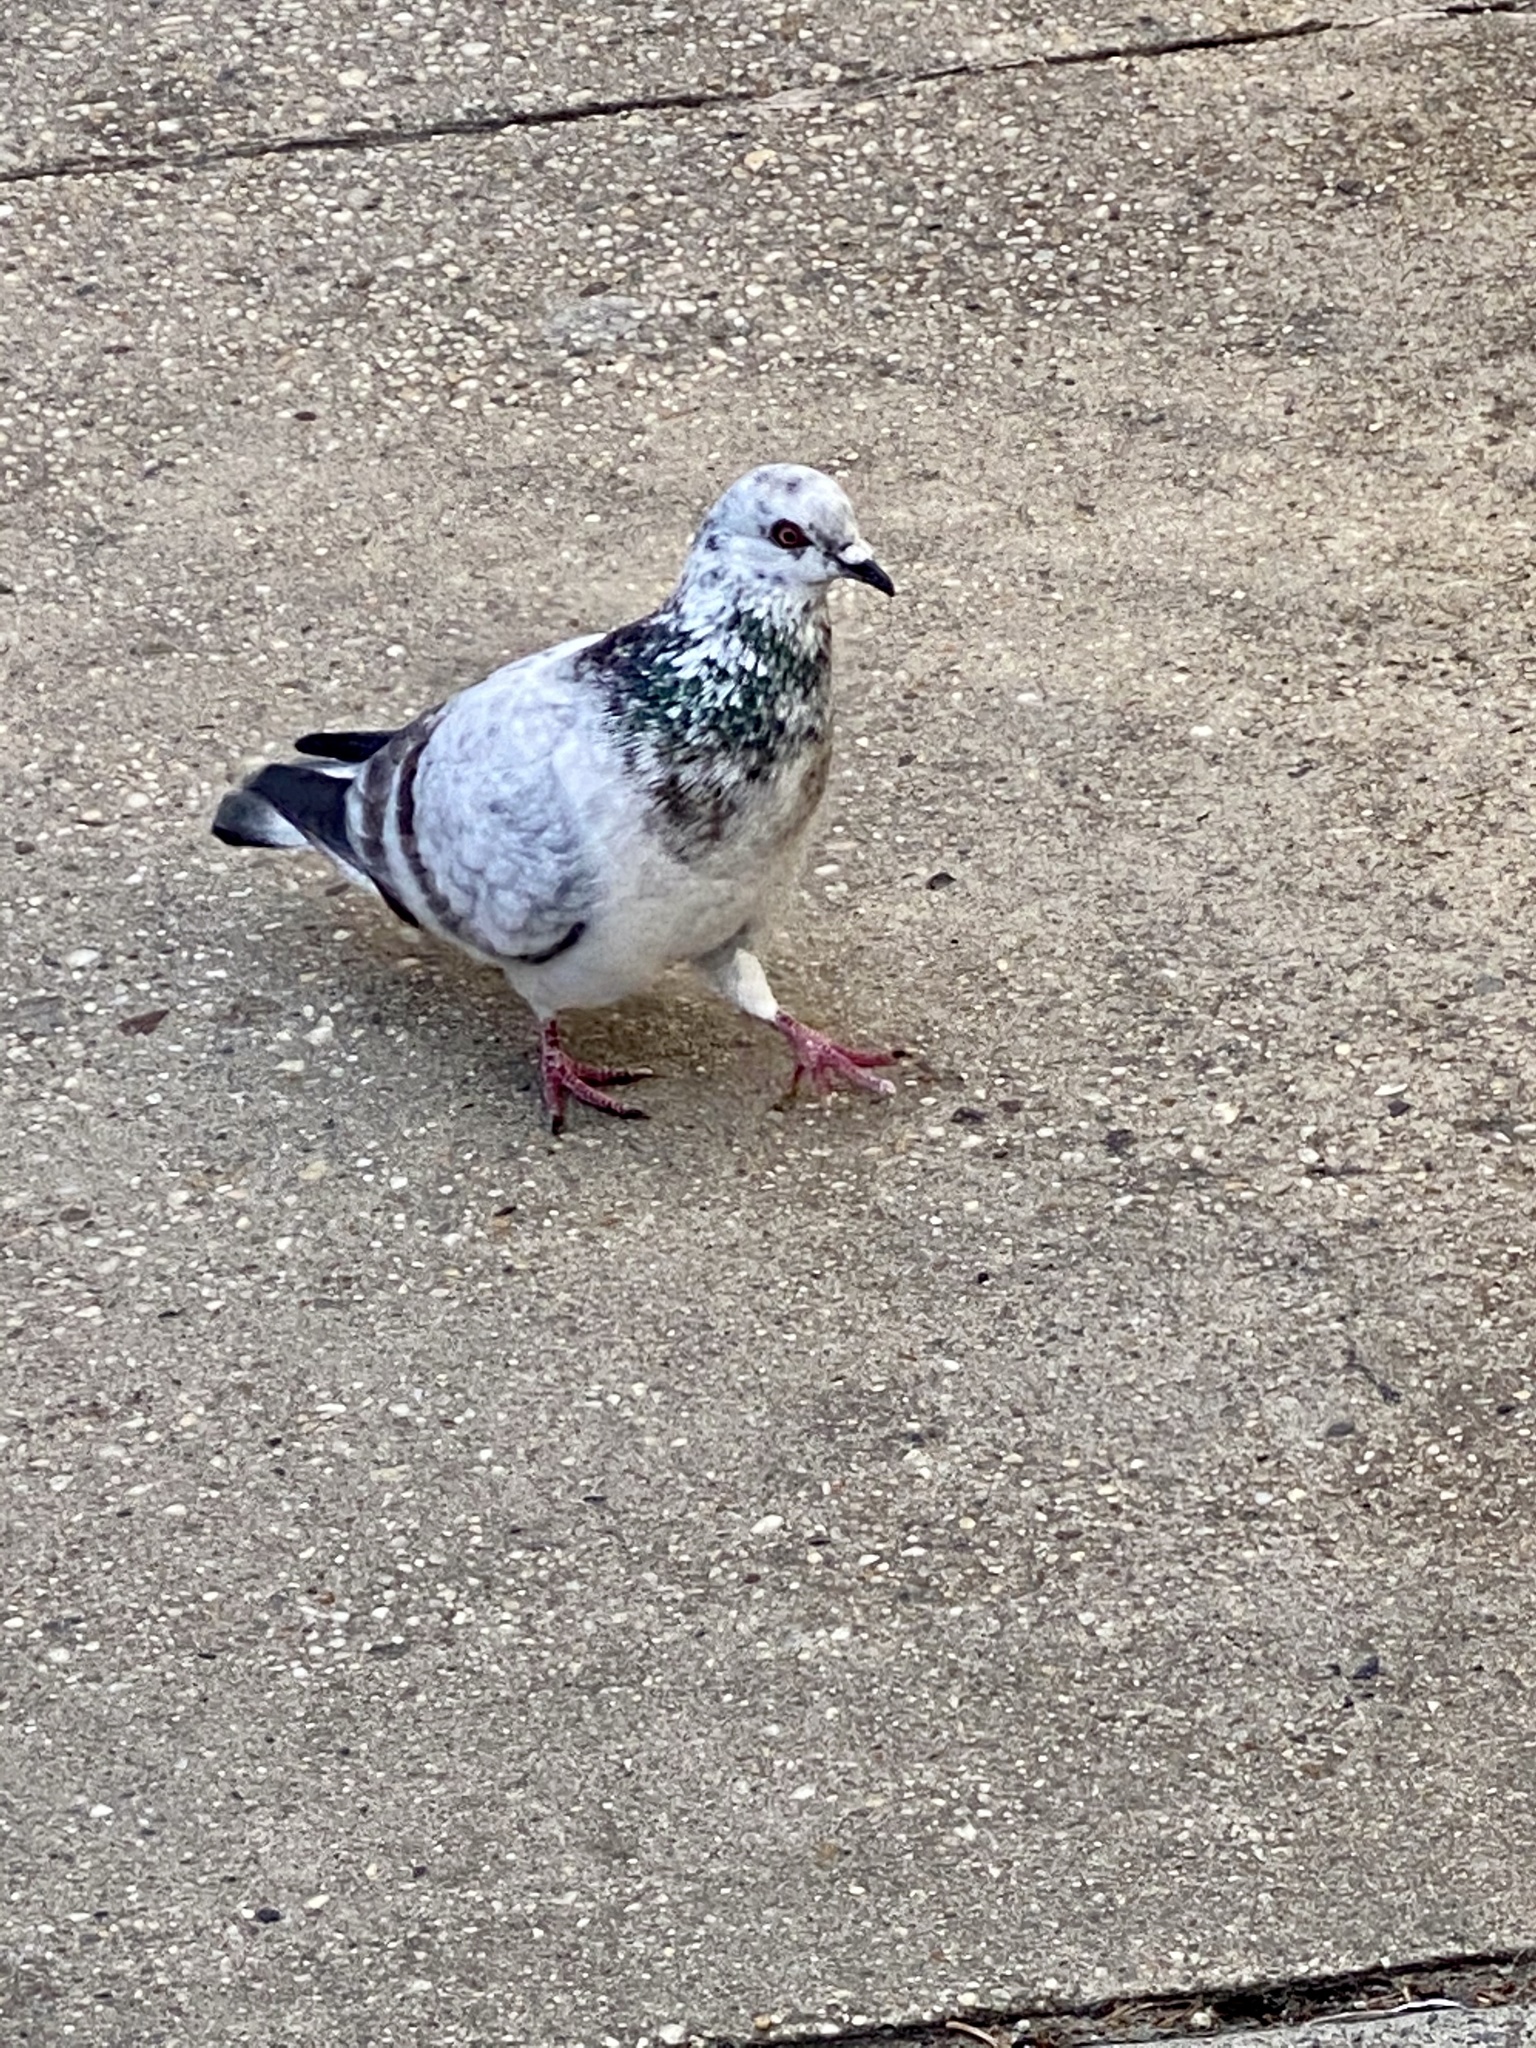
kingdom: Animalia
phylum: Chordata
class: Aves
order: Columbiformes
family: Columbidae
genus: Columba
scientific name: Columba livia
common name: Rock pigeon
